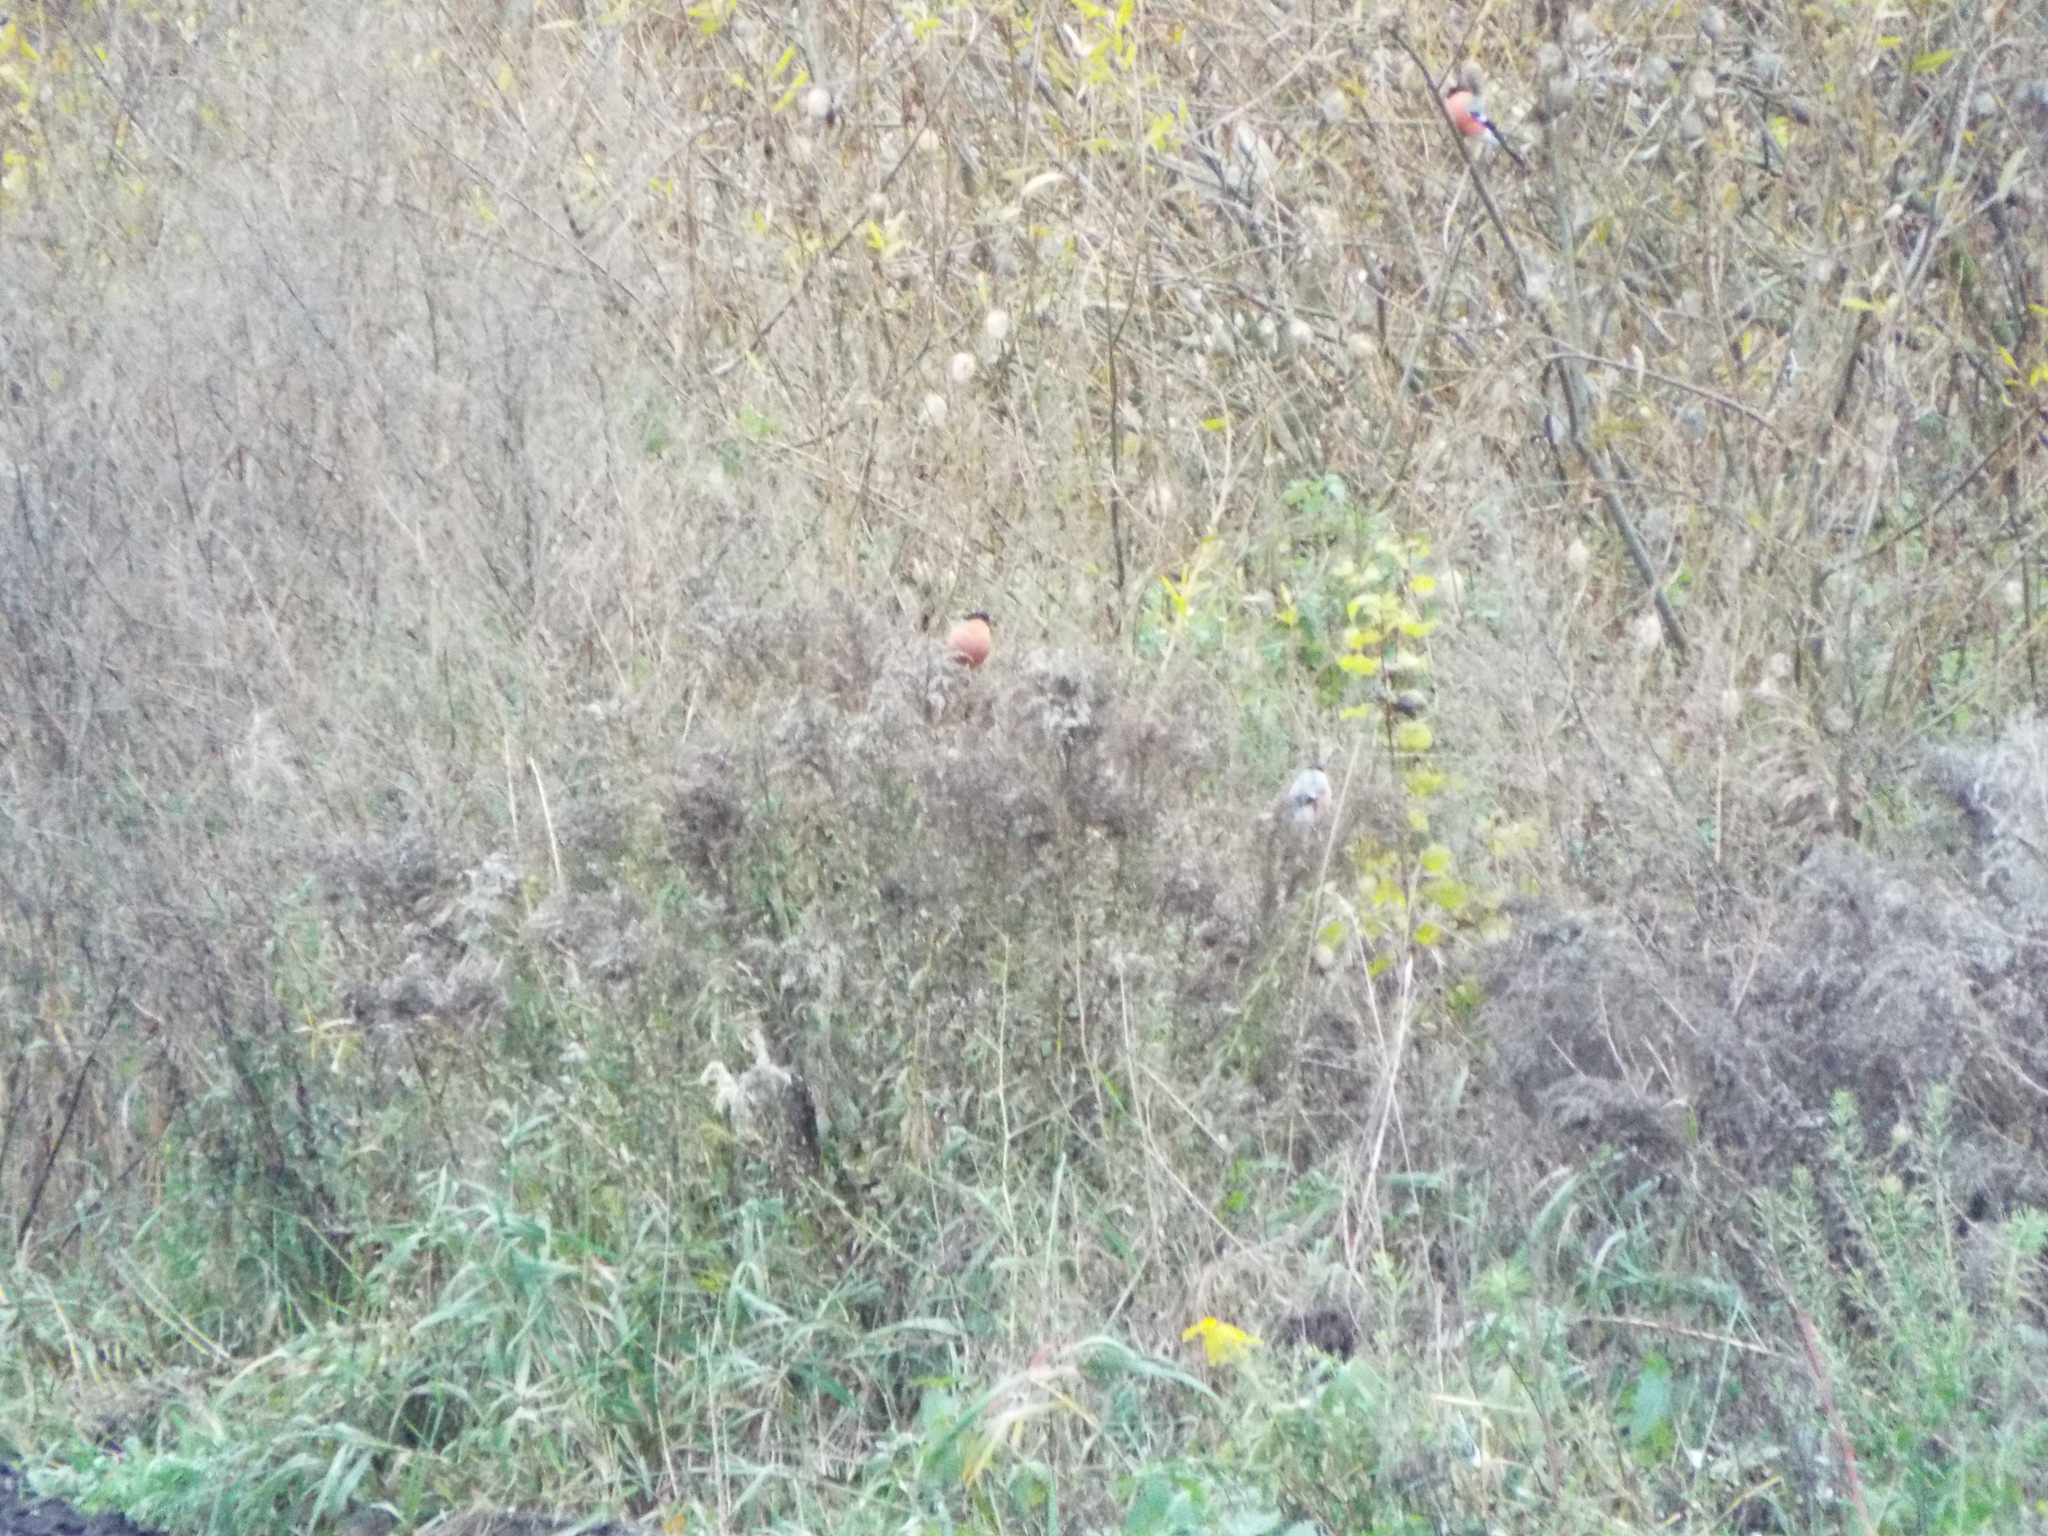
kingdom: Animalia
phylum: Chordata
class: Aves
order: Passeriformes
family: Fringillidae
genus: Pyrrhula
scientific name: Pyrrhula pyrrhula
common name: Eurasian bullfinch
